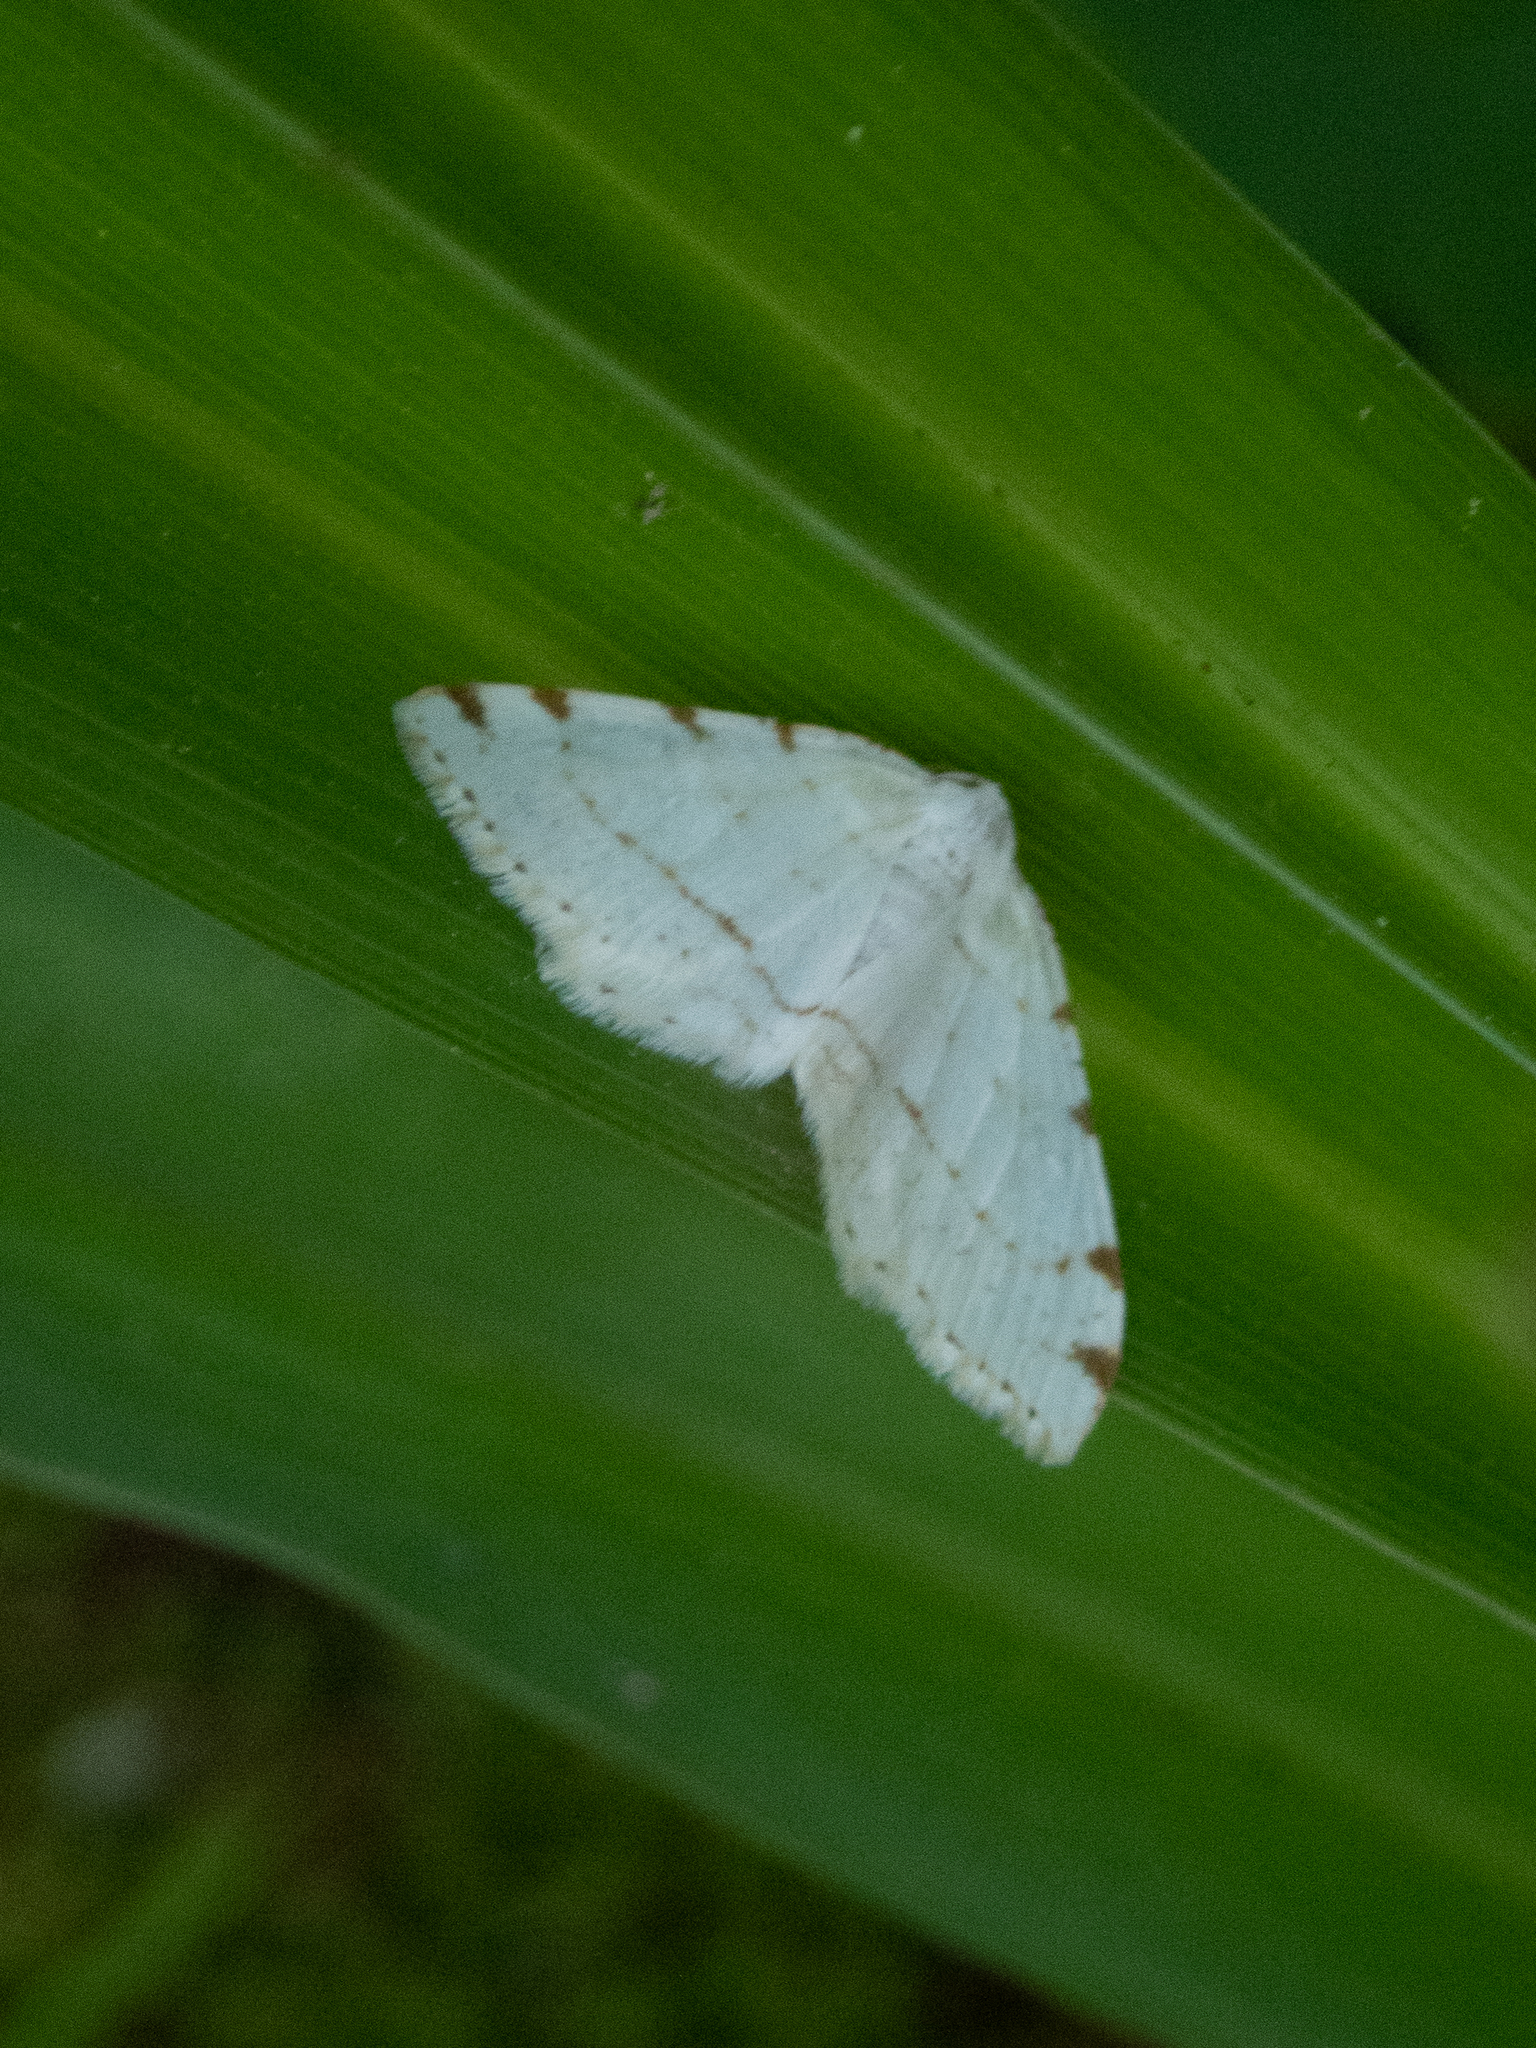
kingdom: Animalia
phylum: Arthropoda
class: Insecta
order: Lepidoptera
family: Geometridae
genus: Macaria
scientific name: Macaria pustularia
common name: Lesser maple spanworm moth
